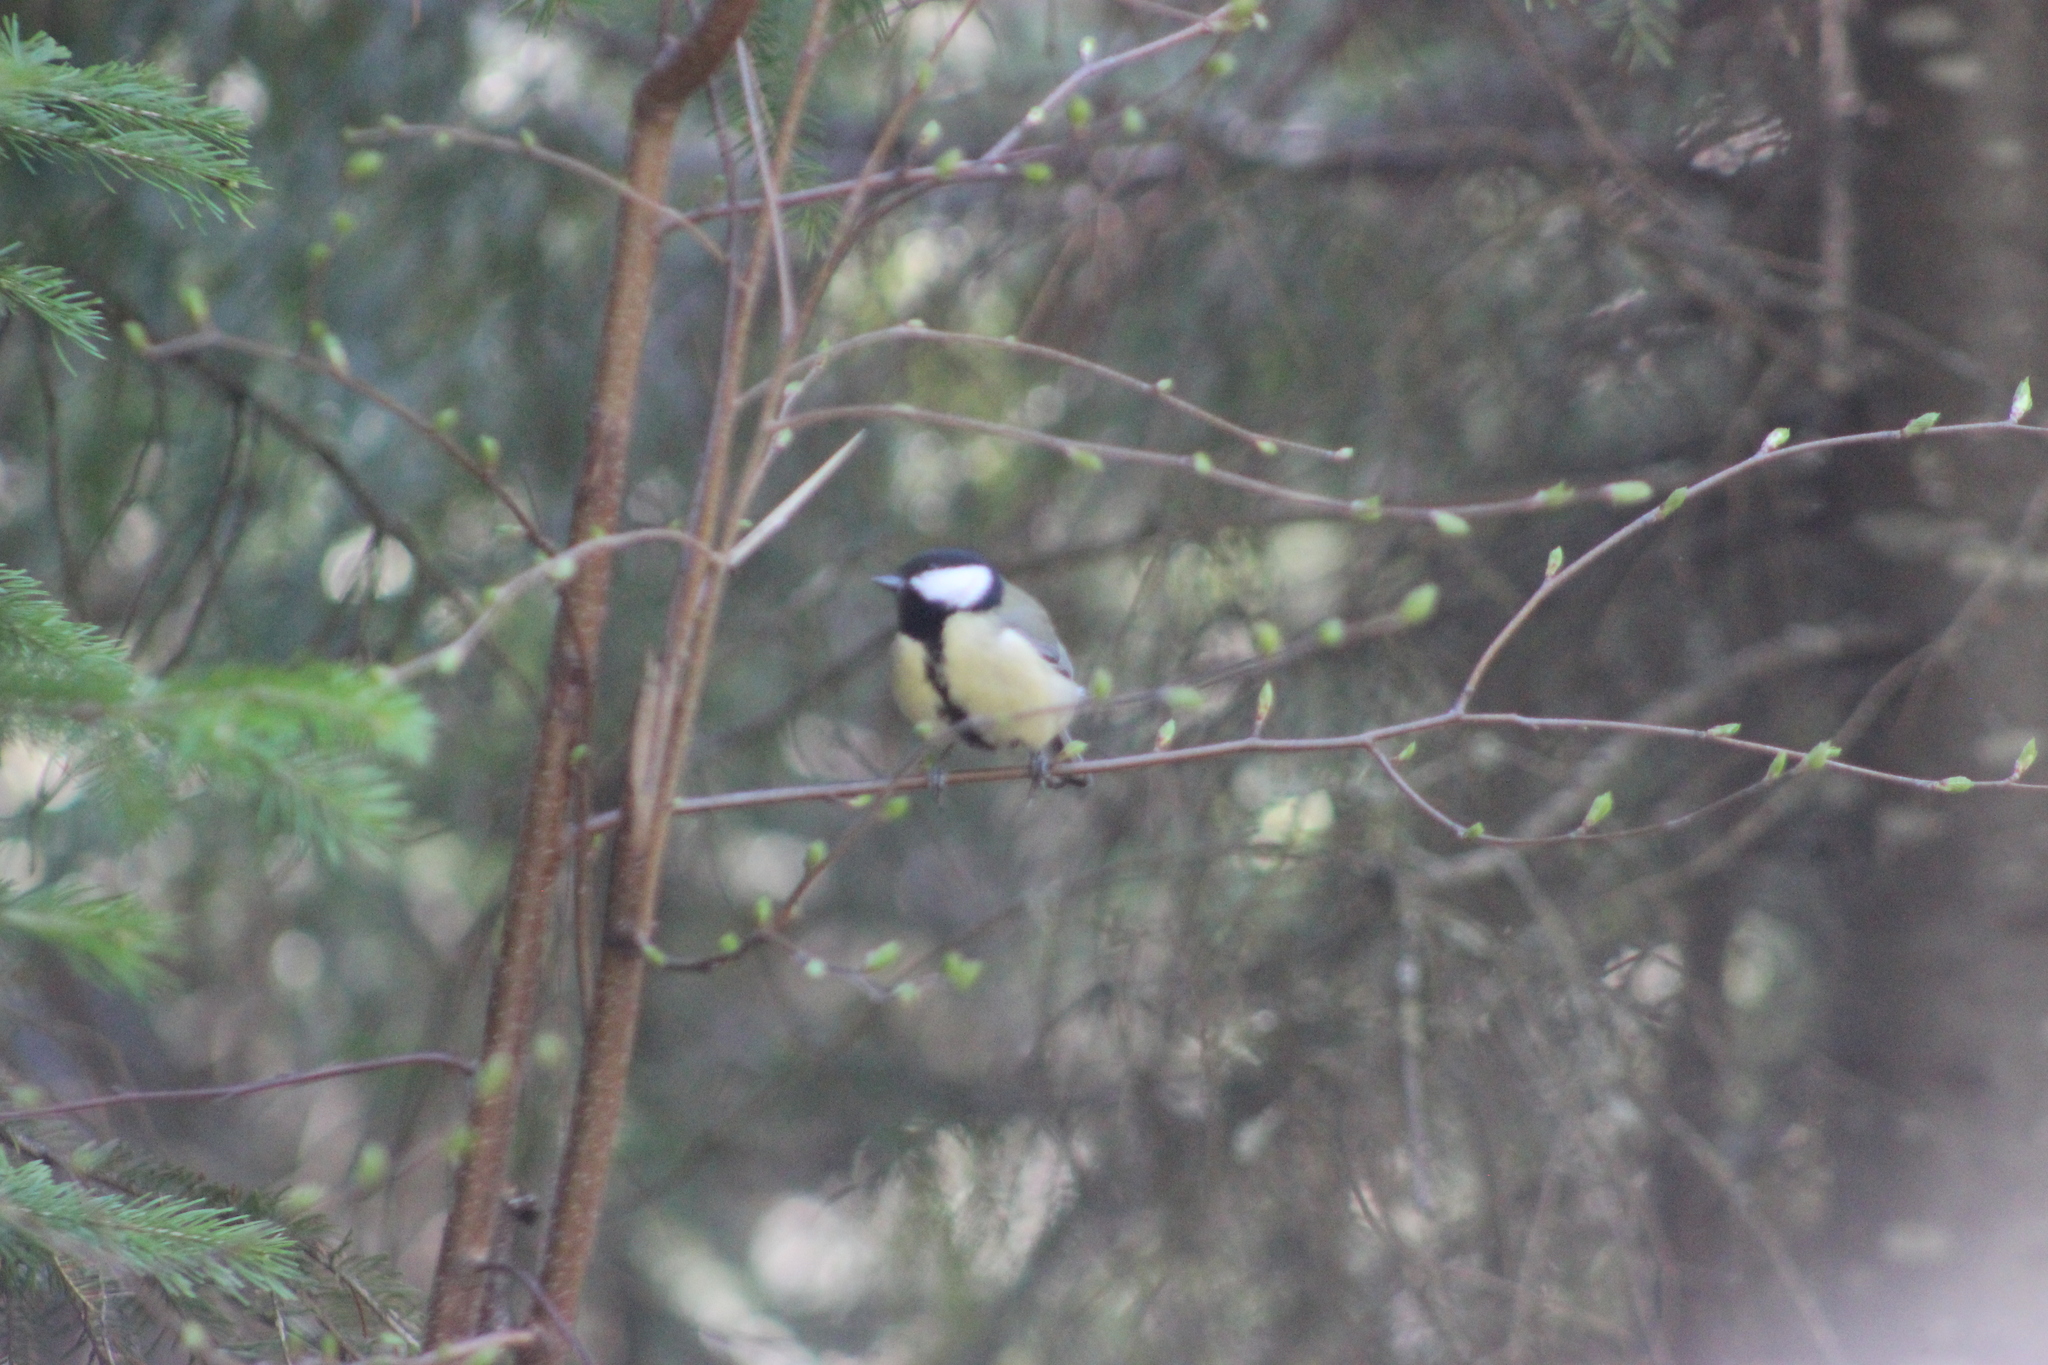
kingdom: Animalia
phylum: Chordata
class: Aves
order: Passeriformes
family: Paridae
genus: Parus
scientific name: Parus major
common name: Great tit
